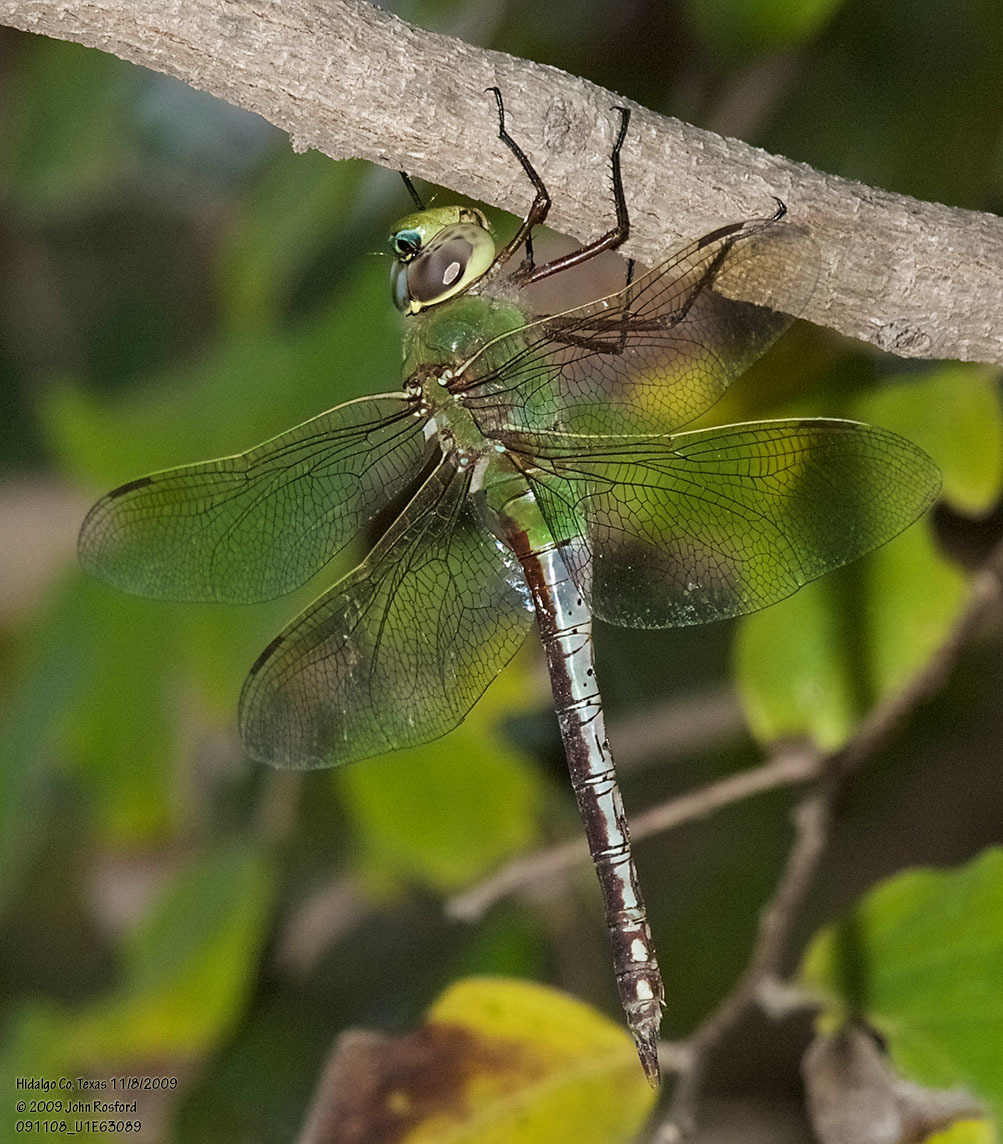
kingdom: Animalia
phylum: Arthropoda
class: Insecta
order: Odonata
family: Aeshnidae
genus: Anax
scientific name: Anax junius
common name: Common green darner
